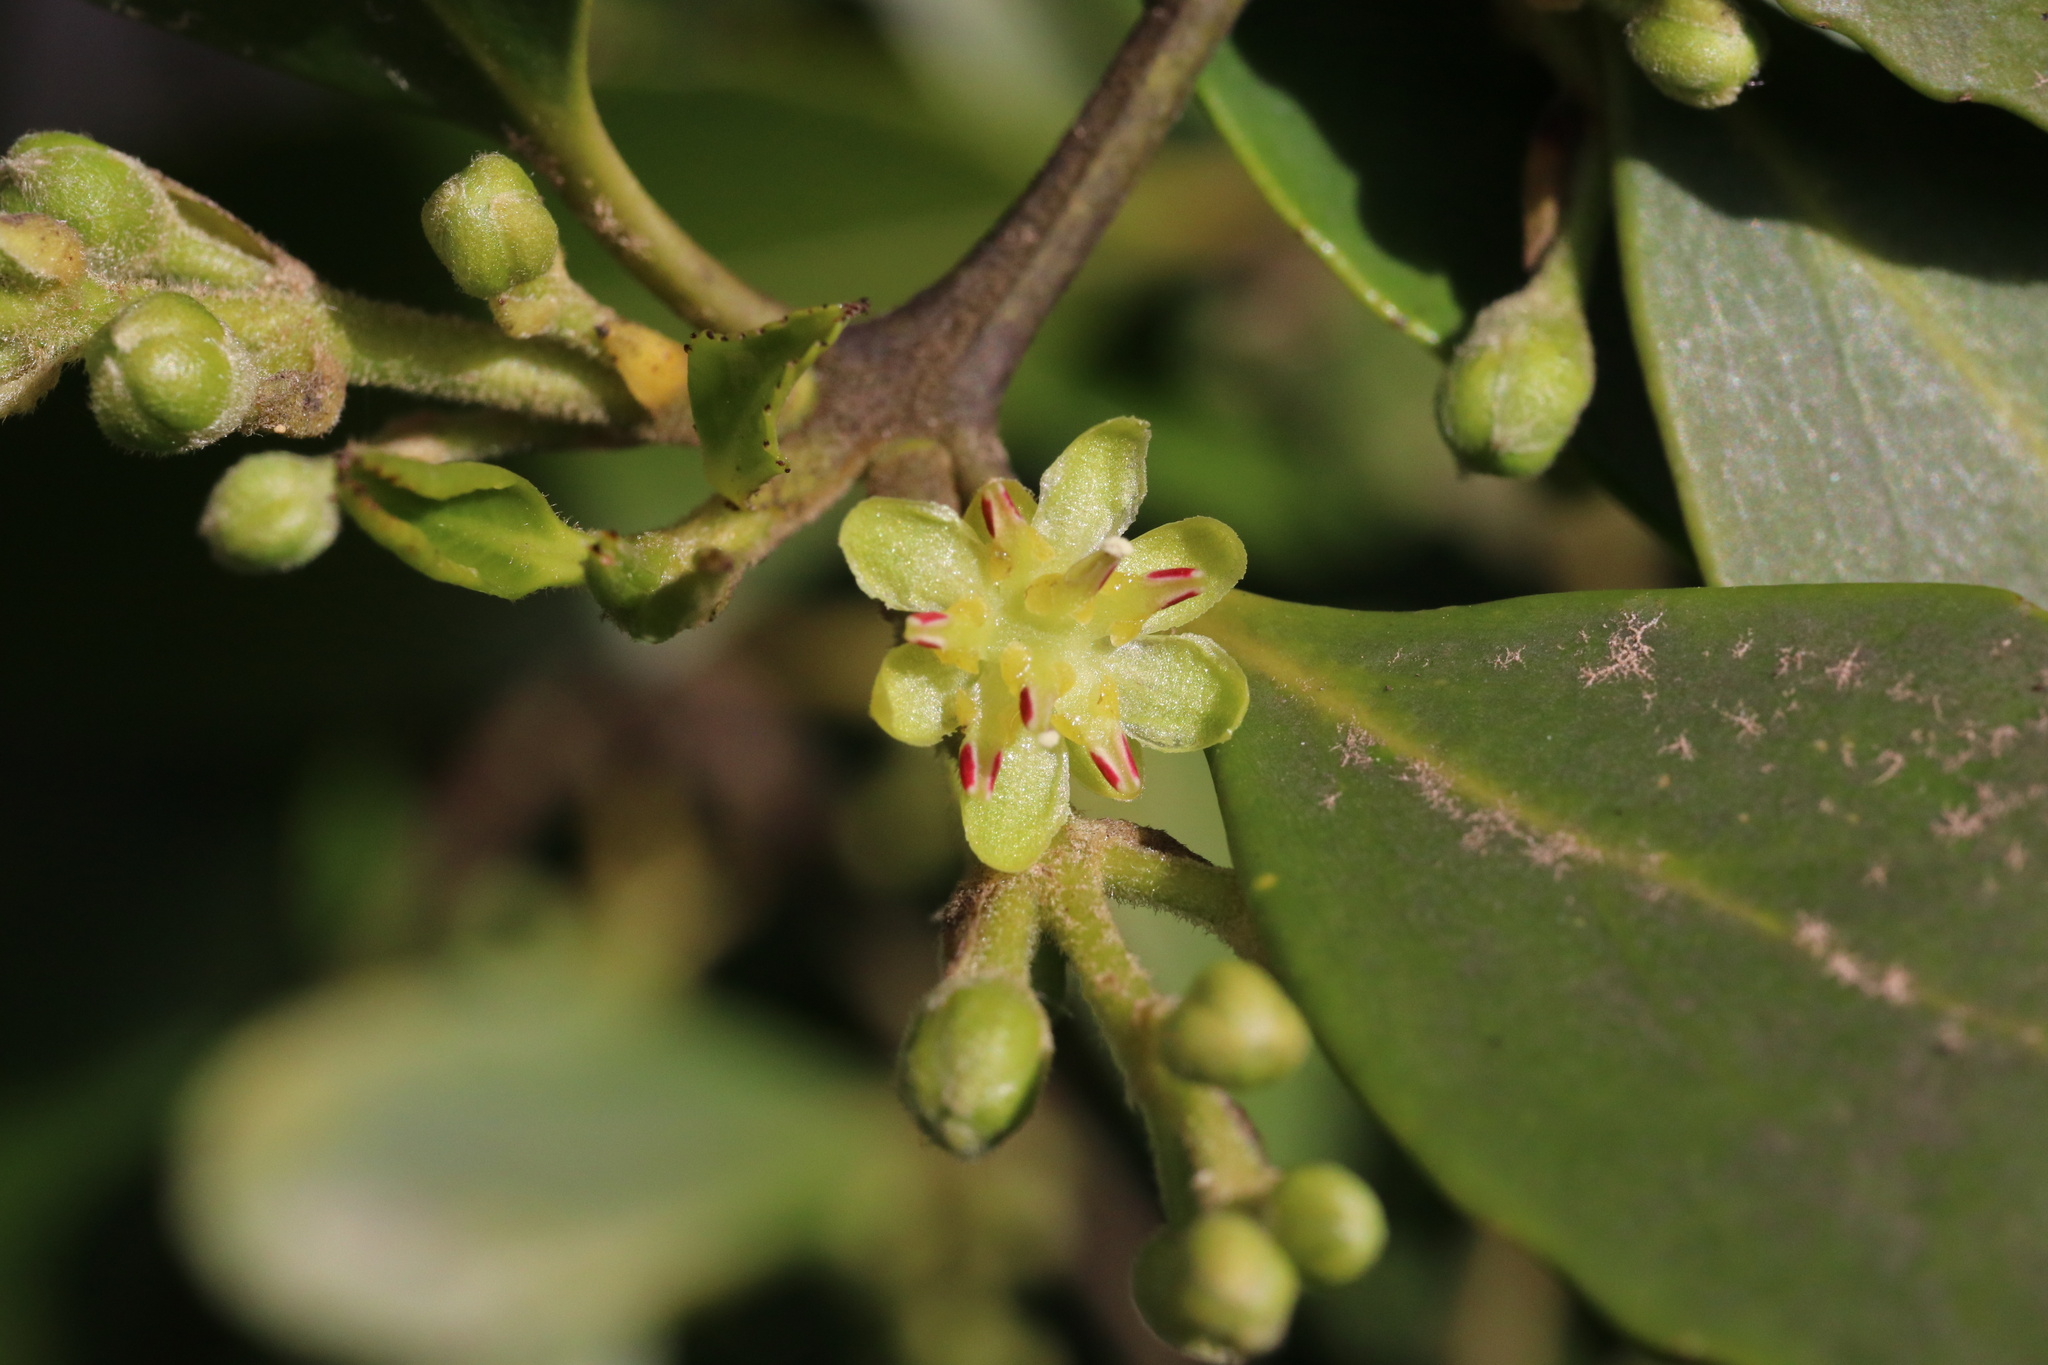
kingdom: Plantae
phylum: Tracheophyta
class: Magnoliopsida
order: Laurales
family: Atherospermataceae
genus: Laurelia
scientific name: Laurelia sempervirens
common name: Chilean laurel
